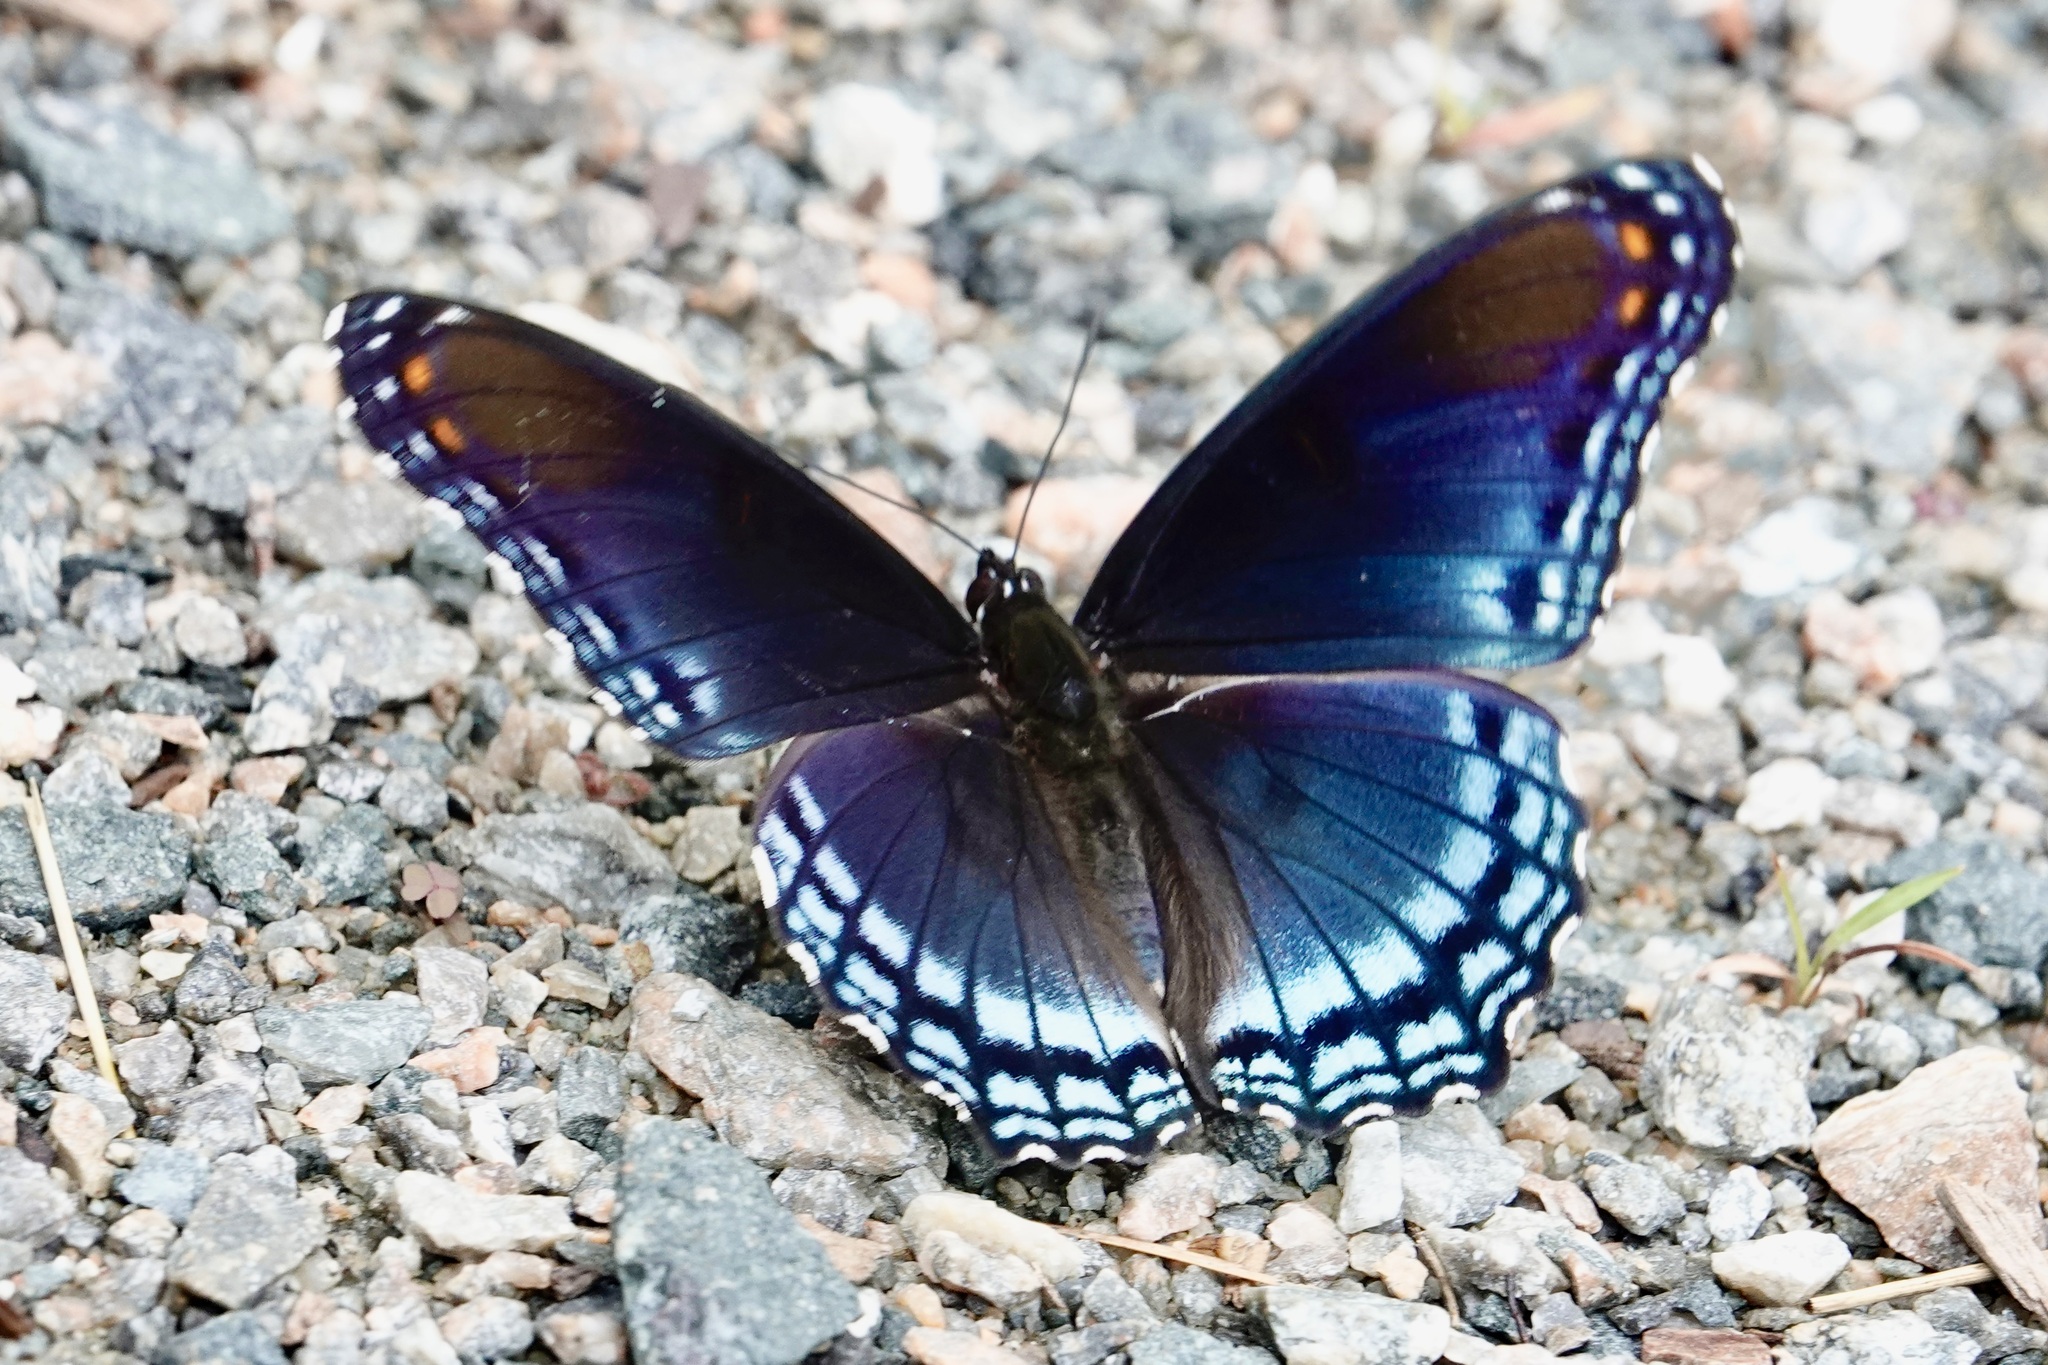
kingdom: Animalia
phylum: Arthropoda
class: Insecta
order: Lepidoptera
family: Nymphalidae
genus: Limenitis
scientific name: Limenitis astyanax
